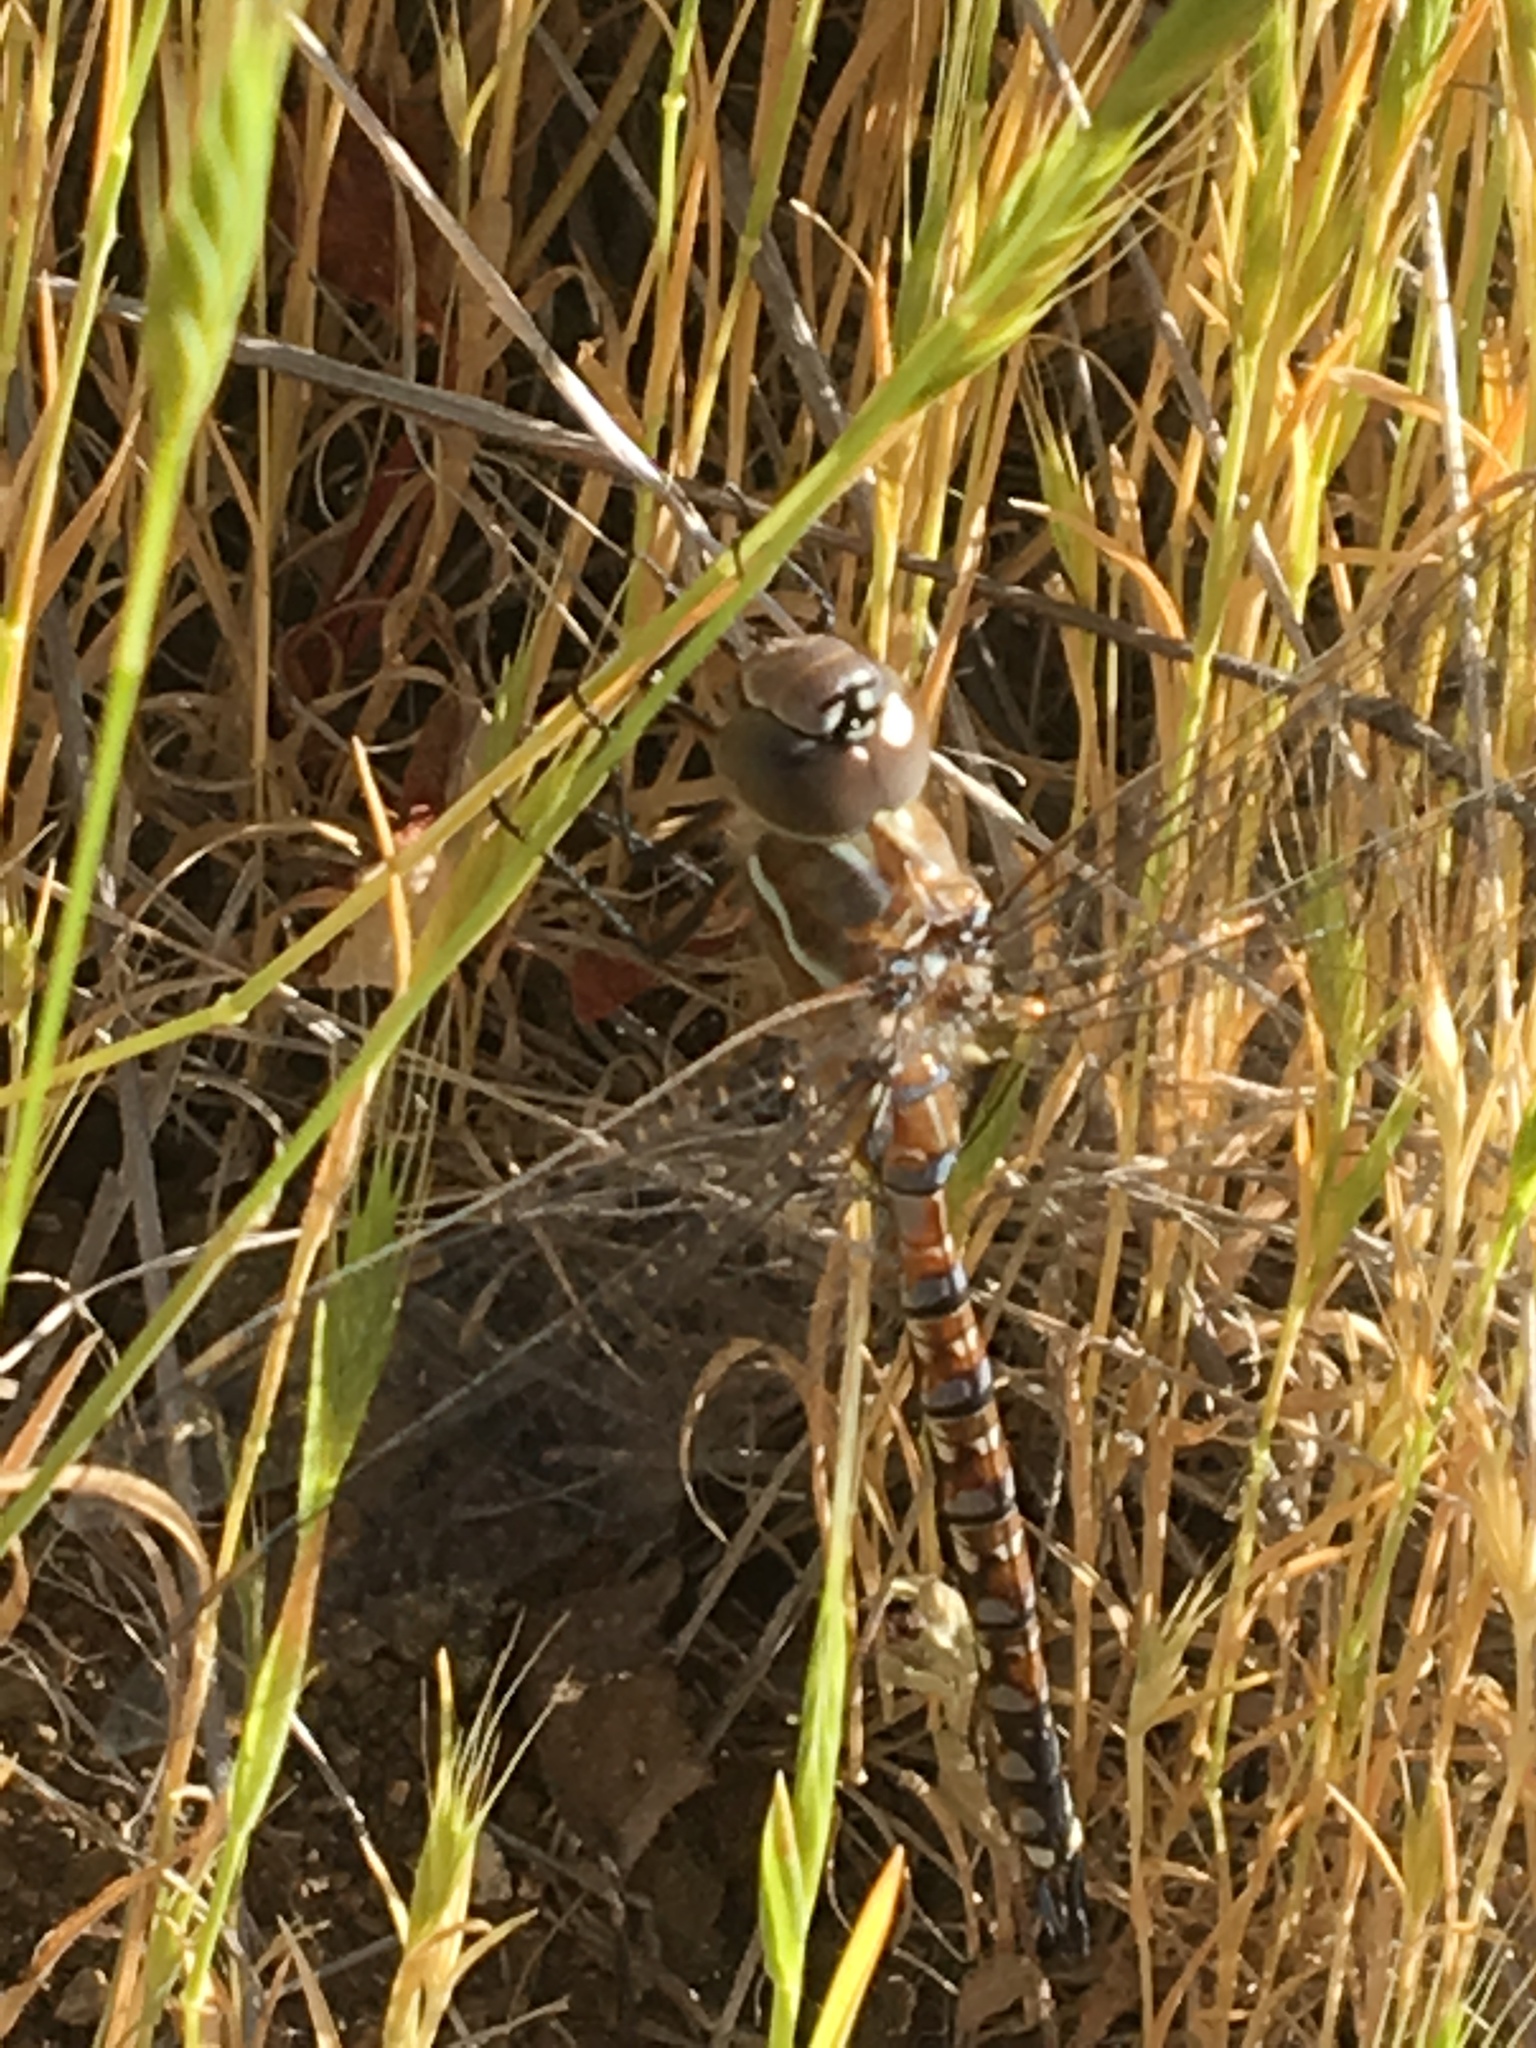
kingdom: Animalia
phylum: Arthropoda
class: Insecta
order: Odonata
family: Aeshnidae
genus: Rhionaeschna
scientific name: Rhionaeschna multicolor
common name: Blue-eyed darner
